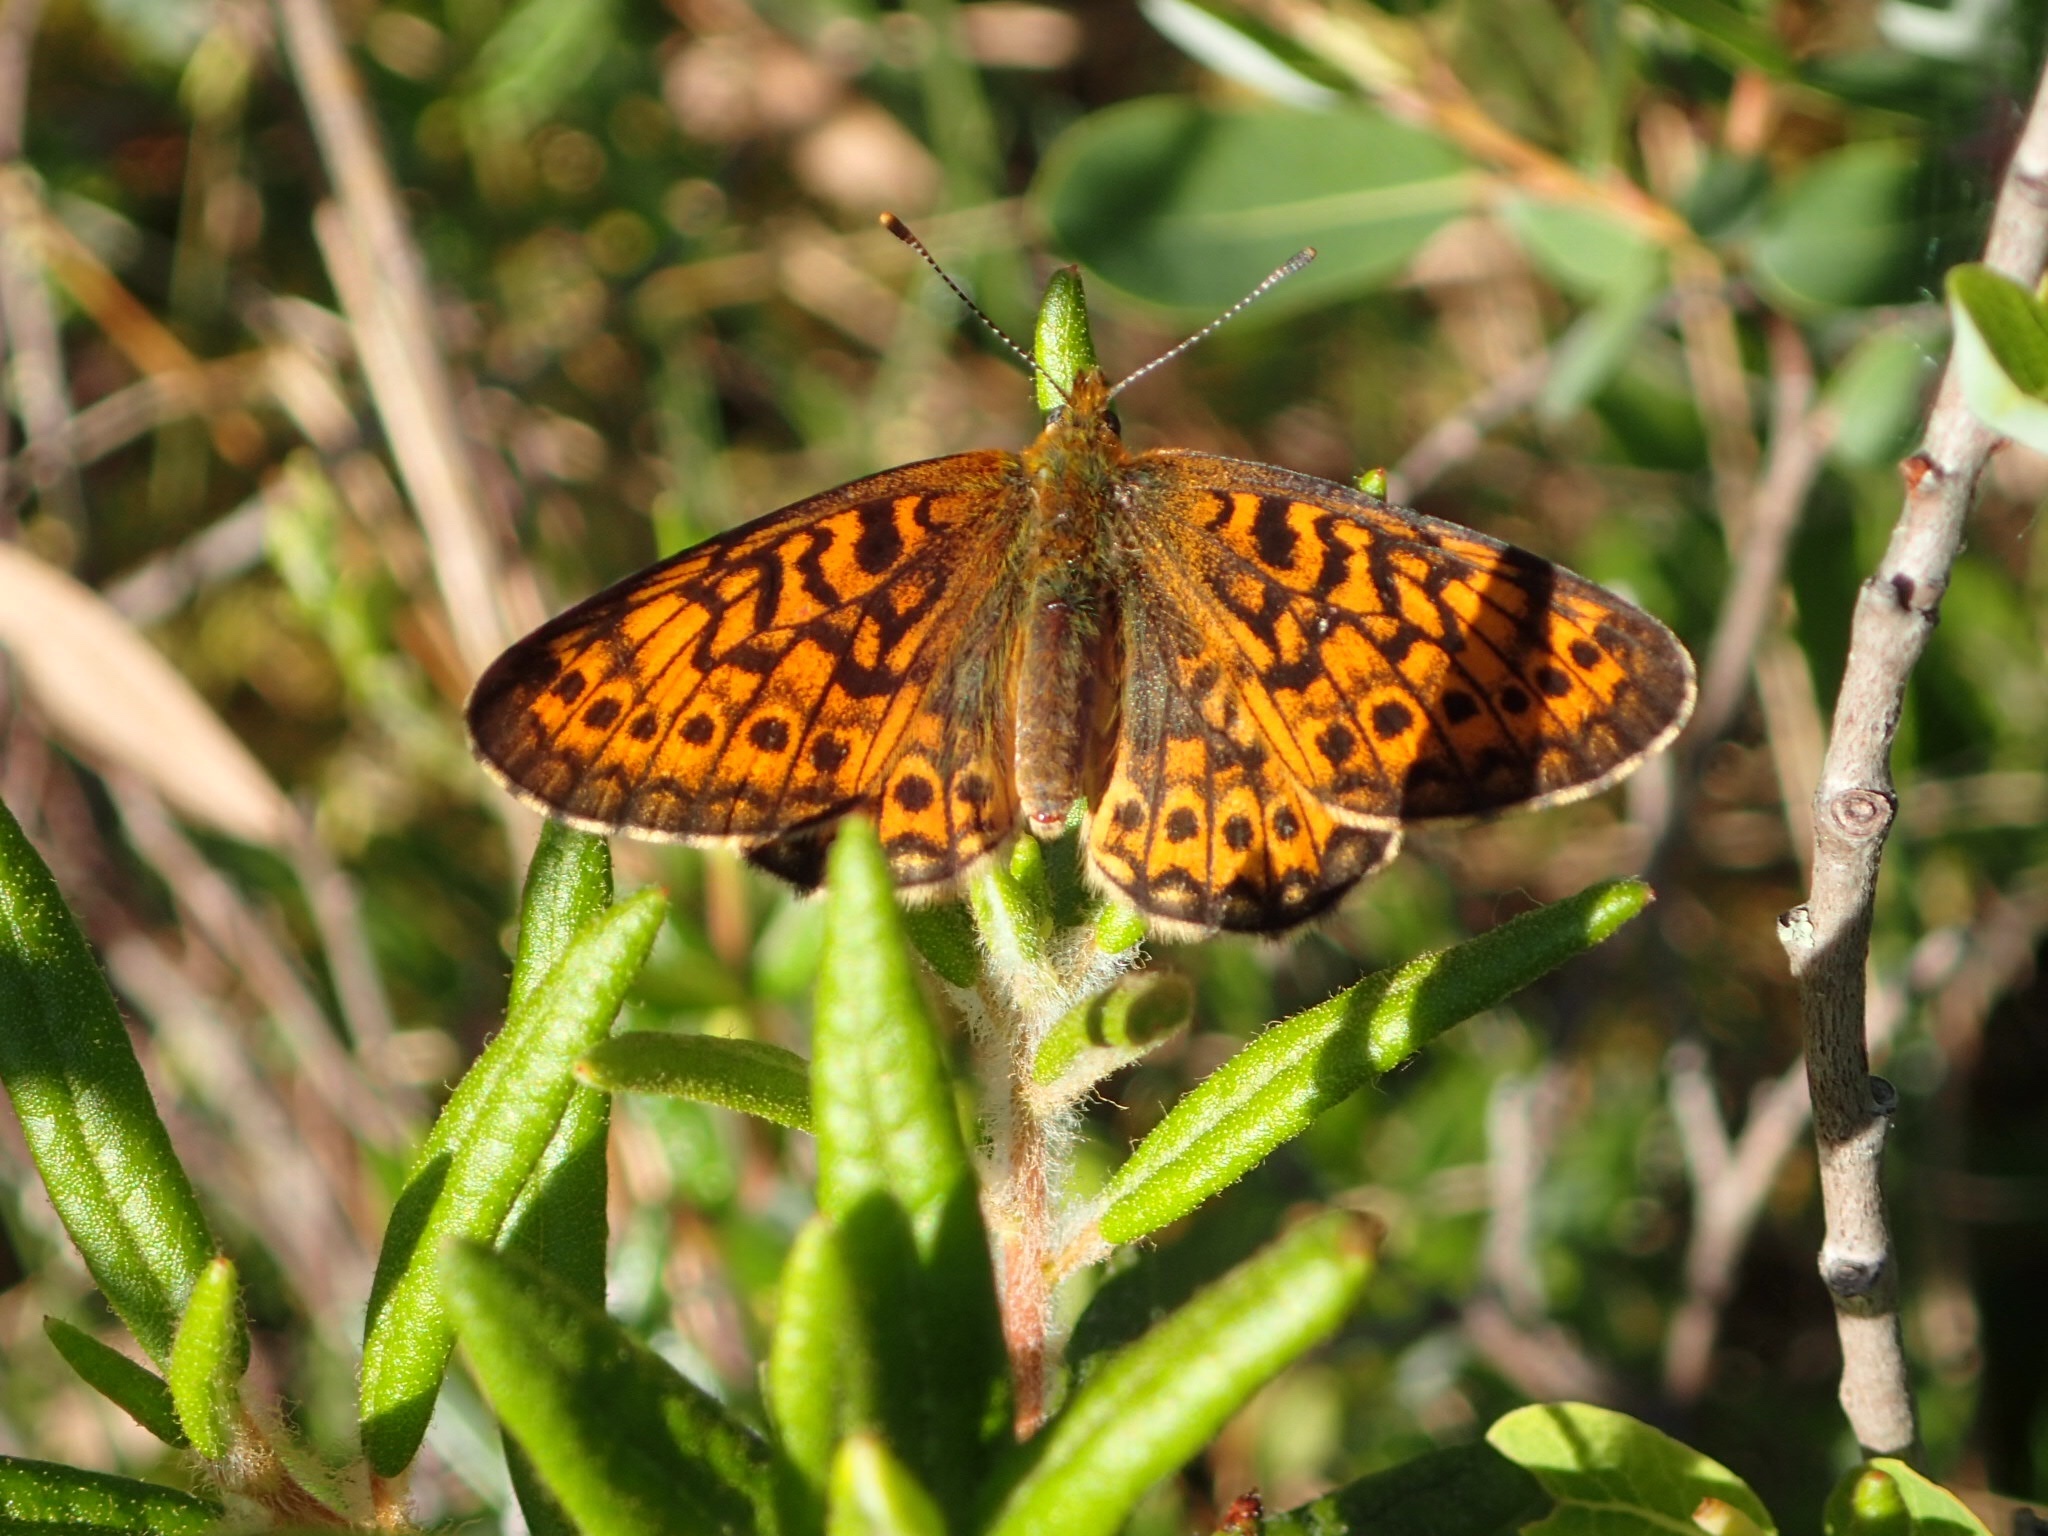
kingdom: Animalia
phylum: Arthropoda
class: Insecta
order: Lepidoptera
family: Nymphalidae
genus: Boloria
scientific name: Boloria eunomia
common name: Bog fritillary
